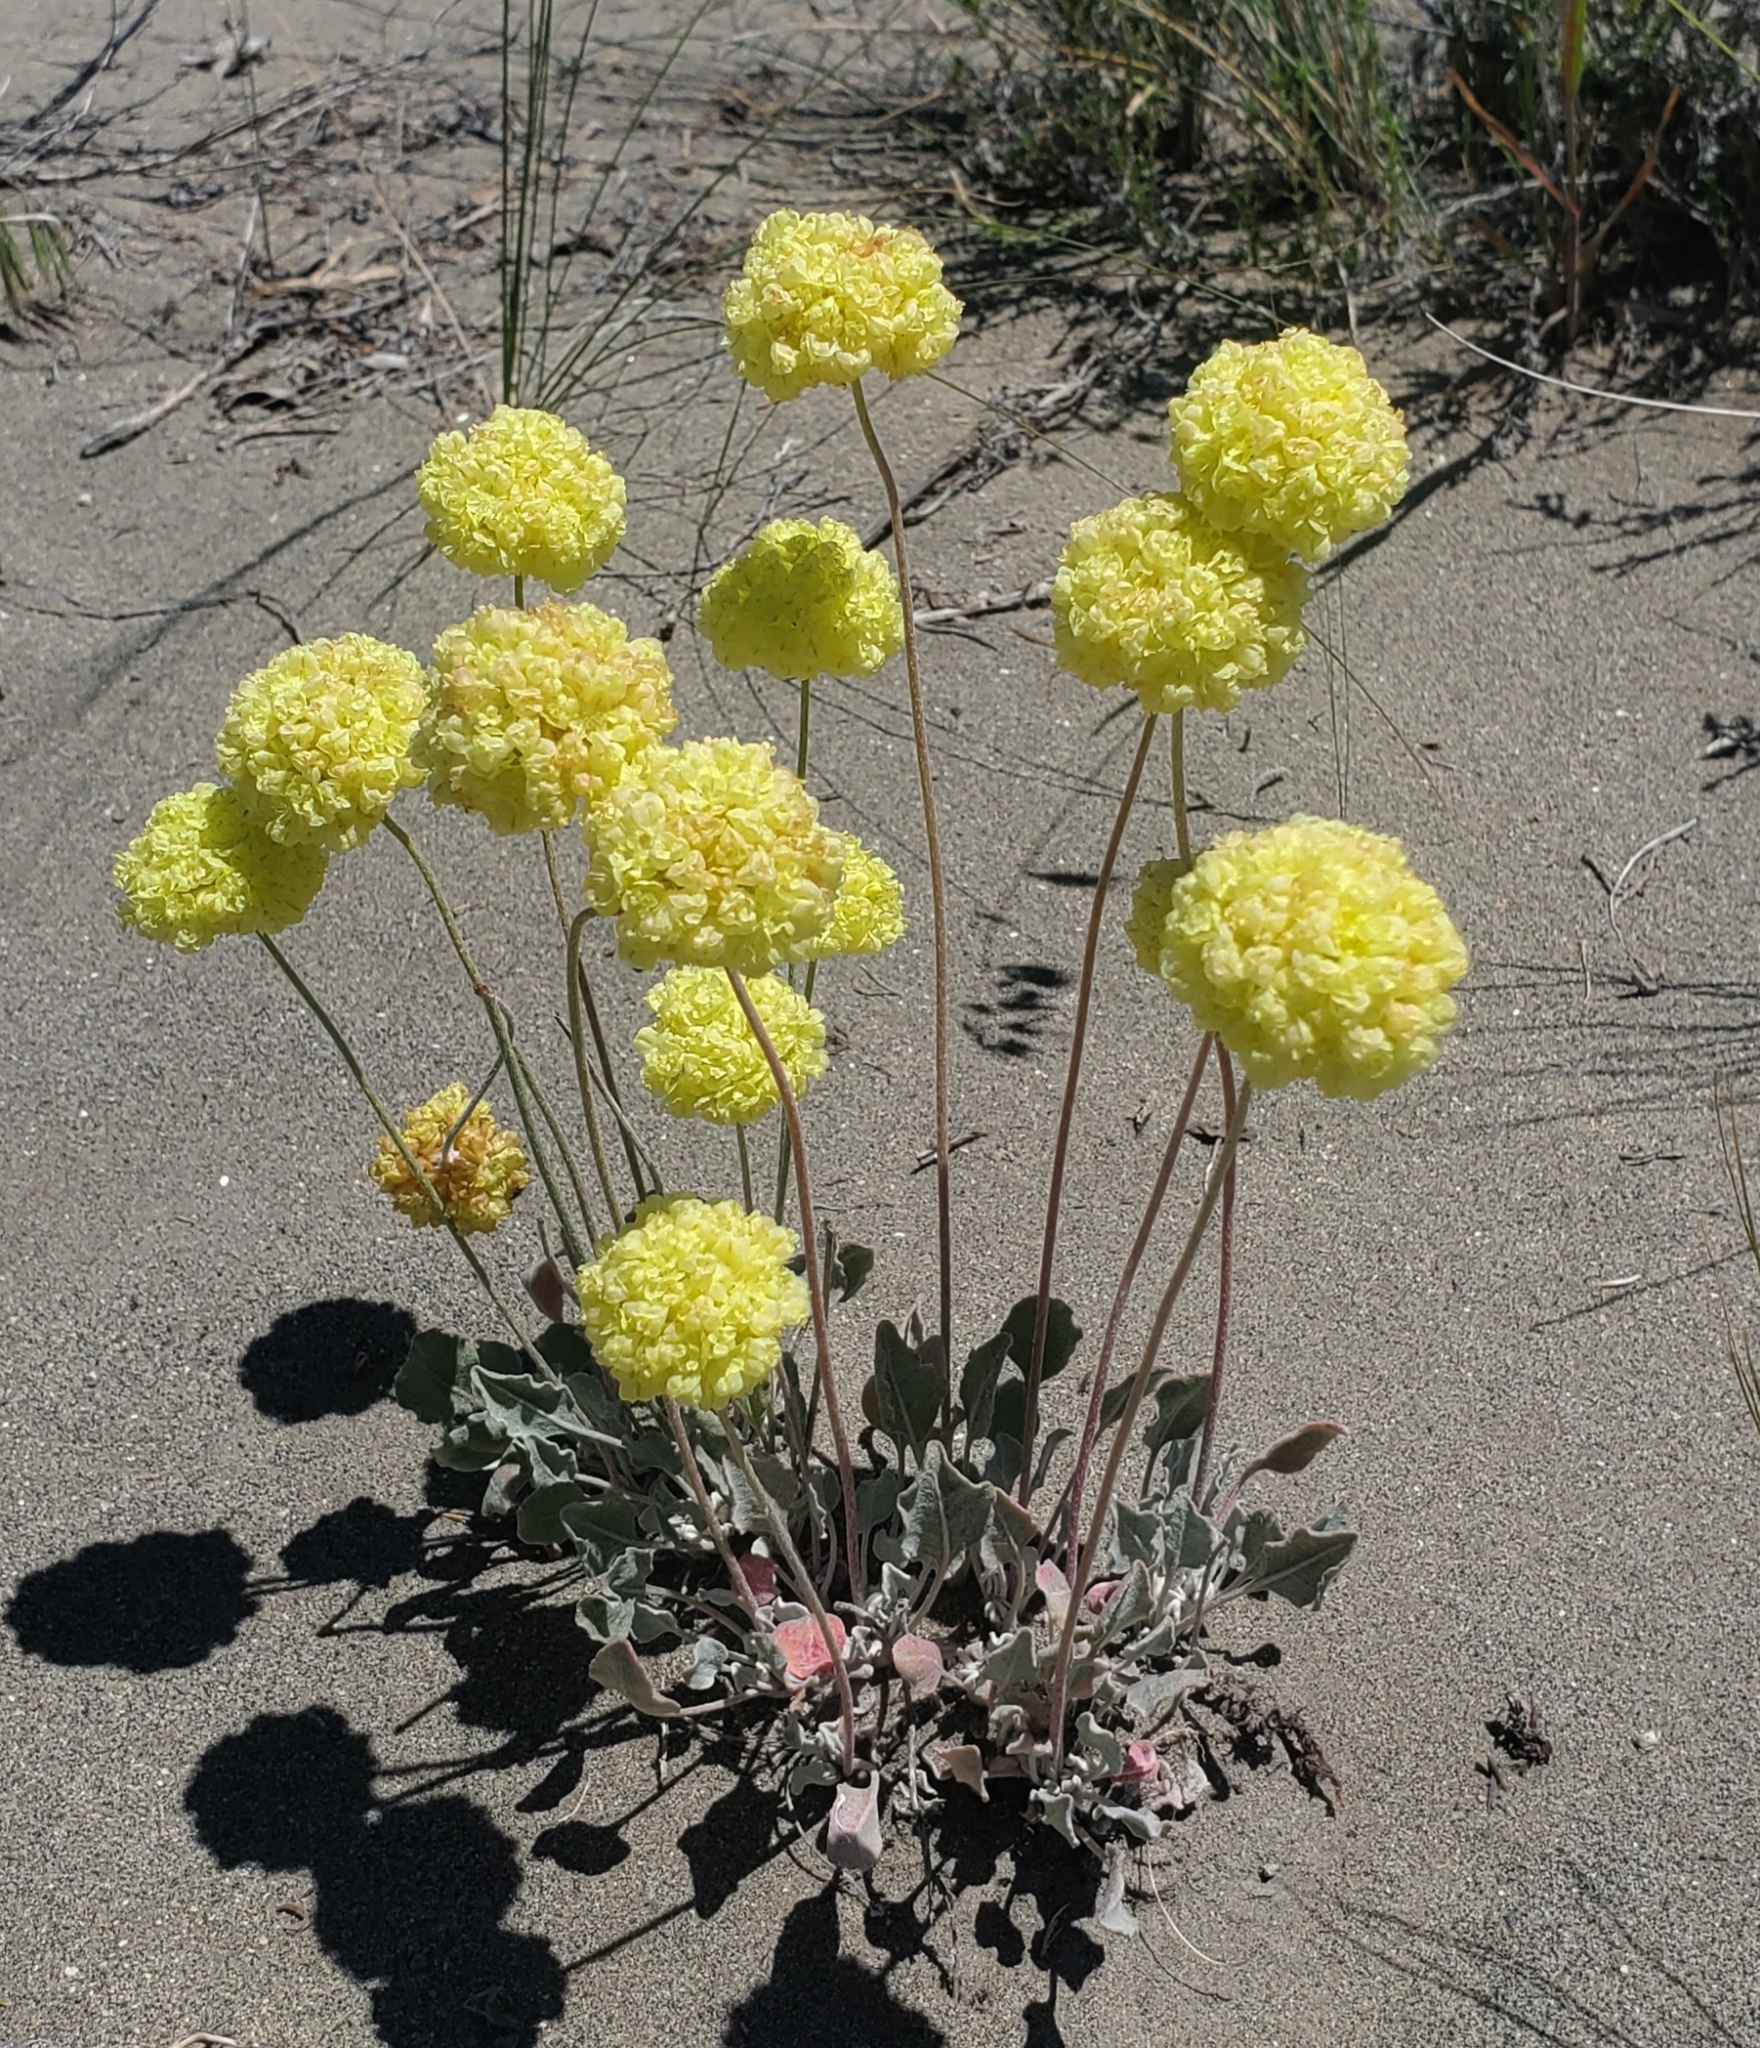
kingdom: Plantae
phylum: Tracheophyta
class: Magnoliopsida
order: Caryophyllales
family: Polygonaceae
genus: Eriogonum
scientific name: Eriogonum ovalifolium
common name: Cushion buckwheat
